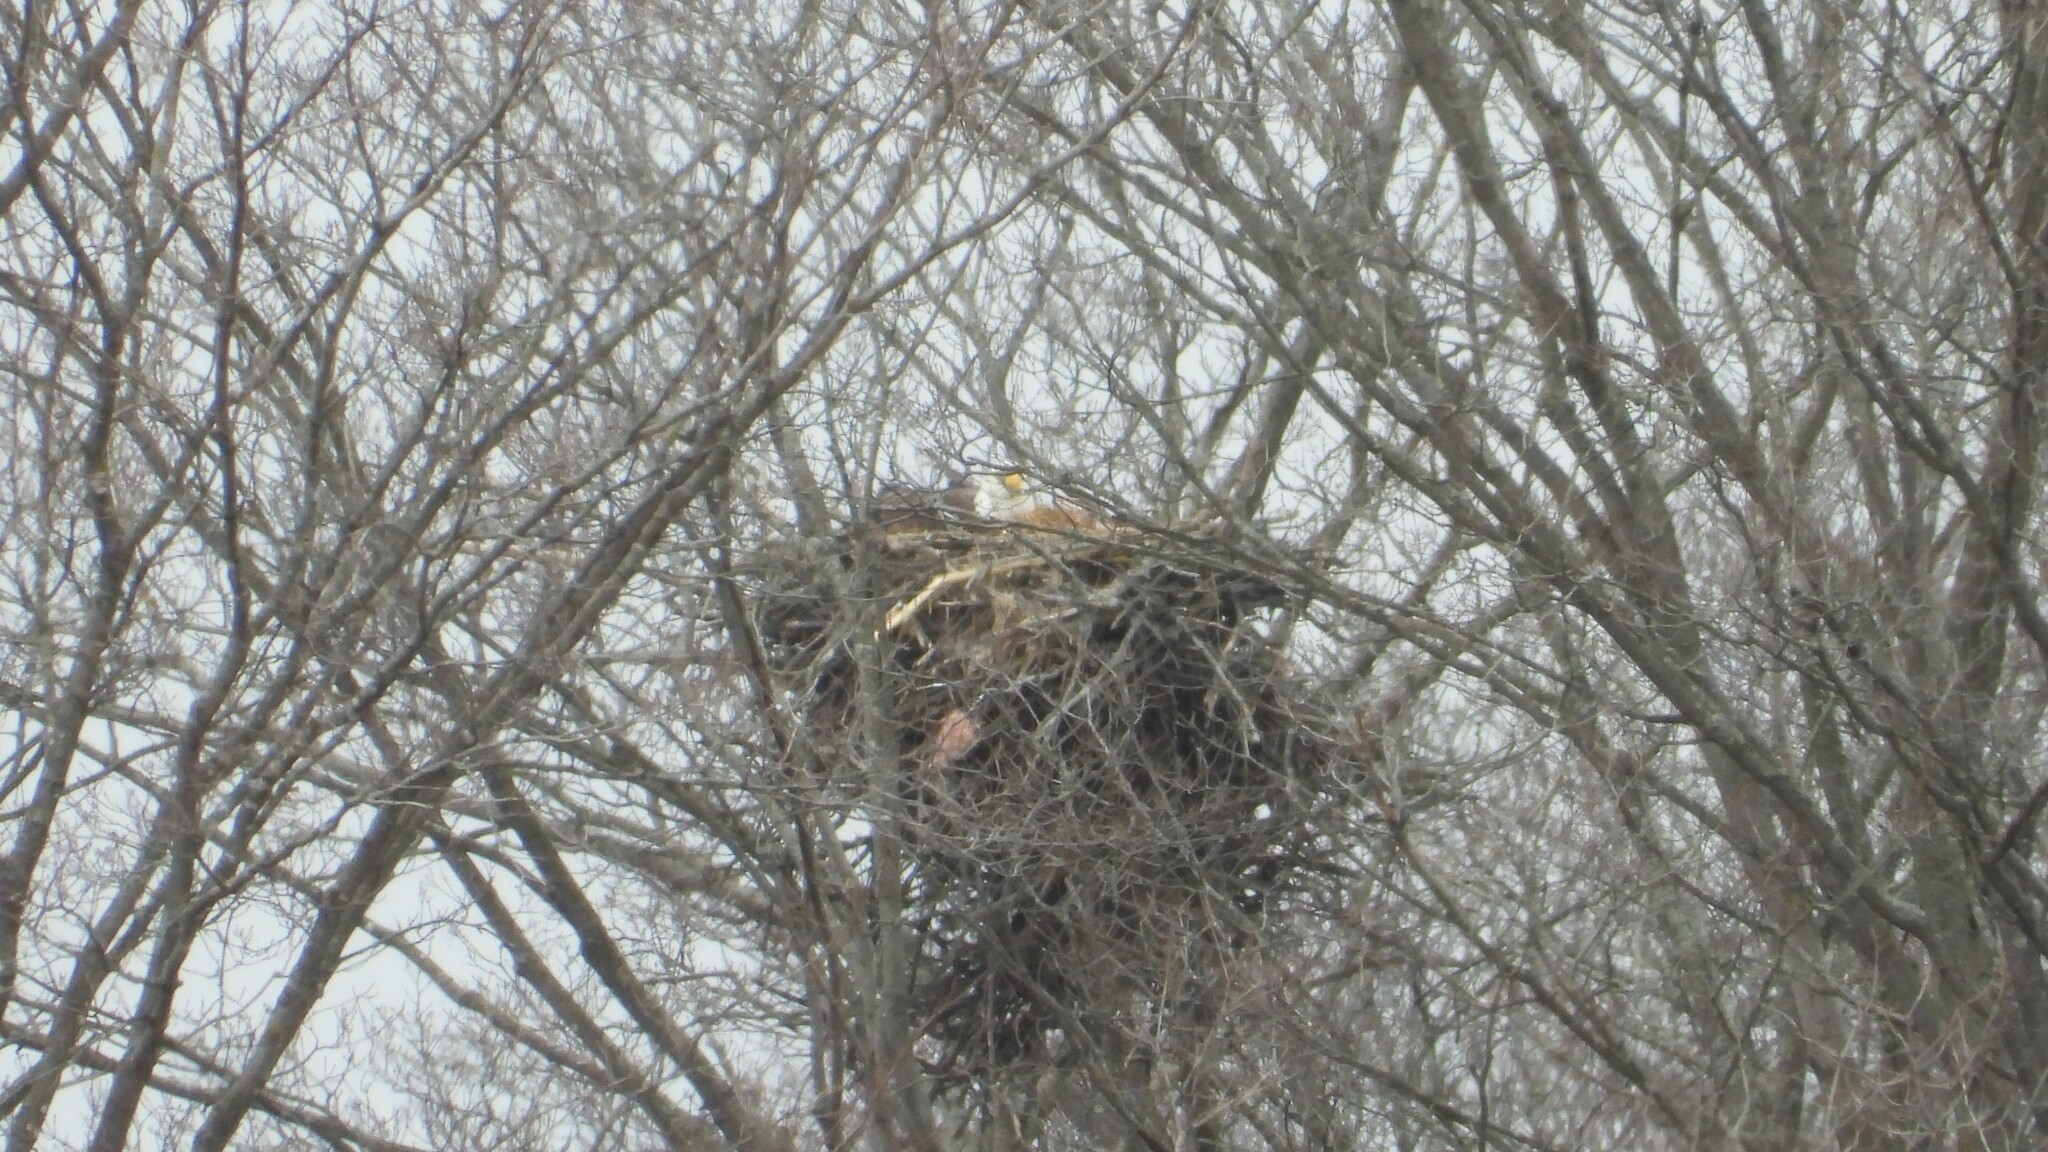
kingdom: Animalia
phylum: Chordata
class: Aves
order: Accipitriformes
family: Accipitridae
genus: Haliaeetus
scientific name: Haliaeetus leucocephalus
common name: Bald eagle
